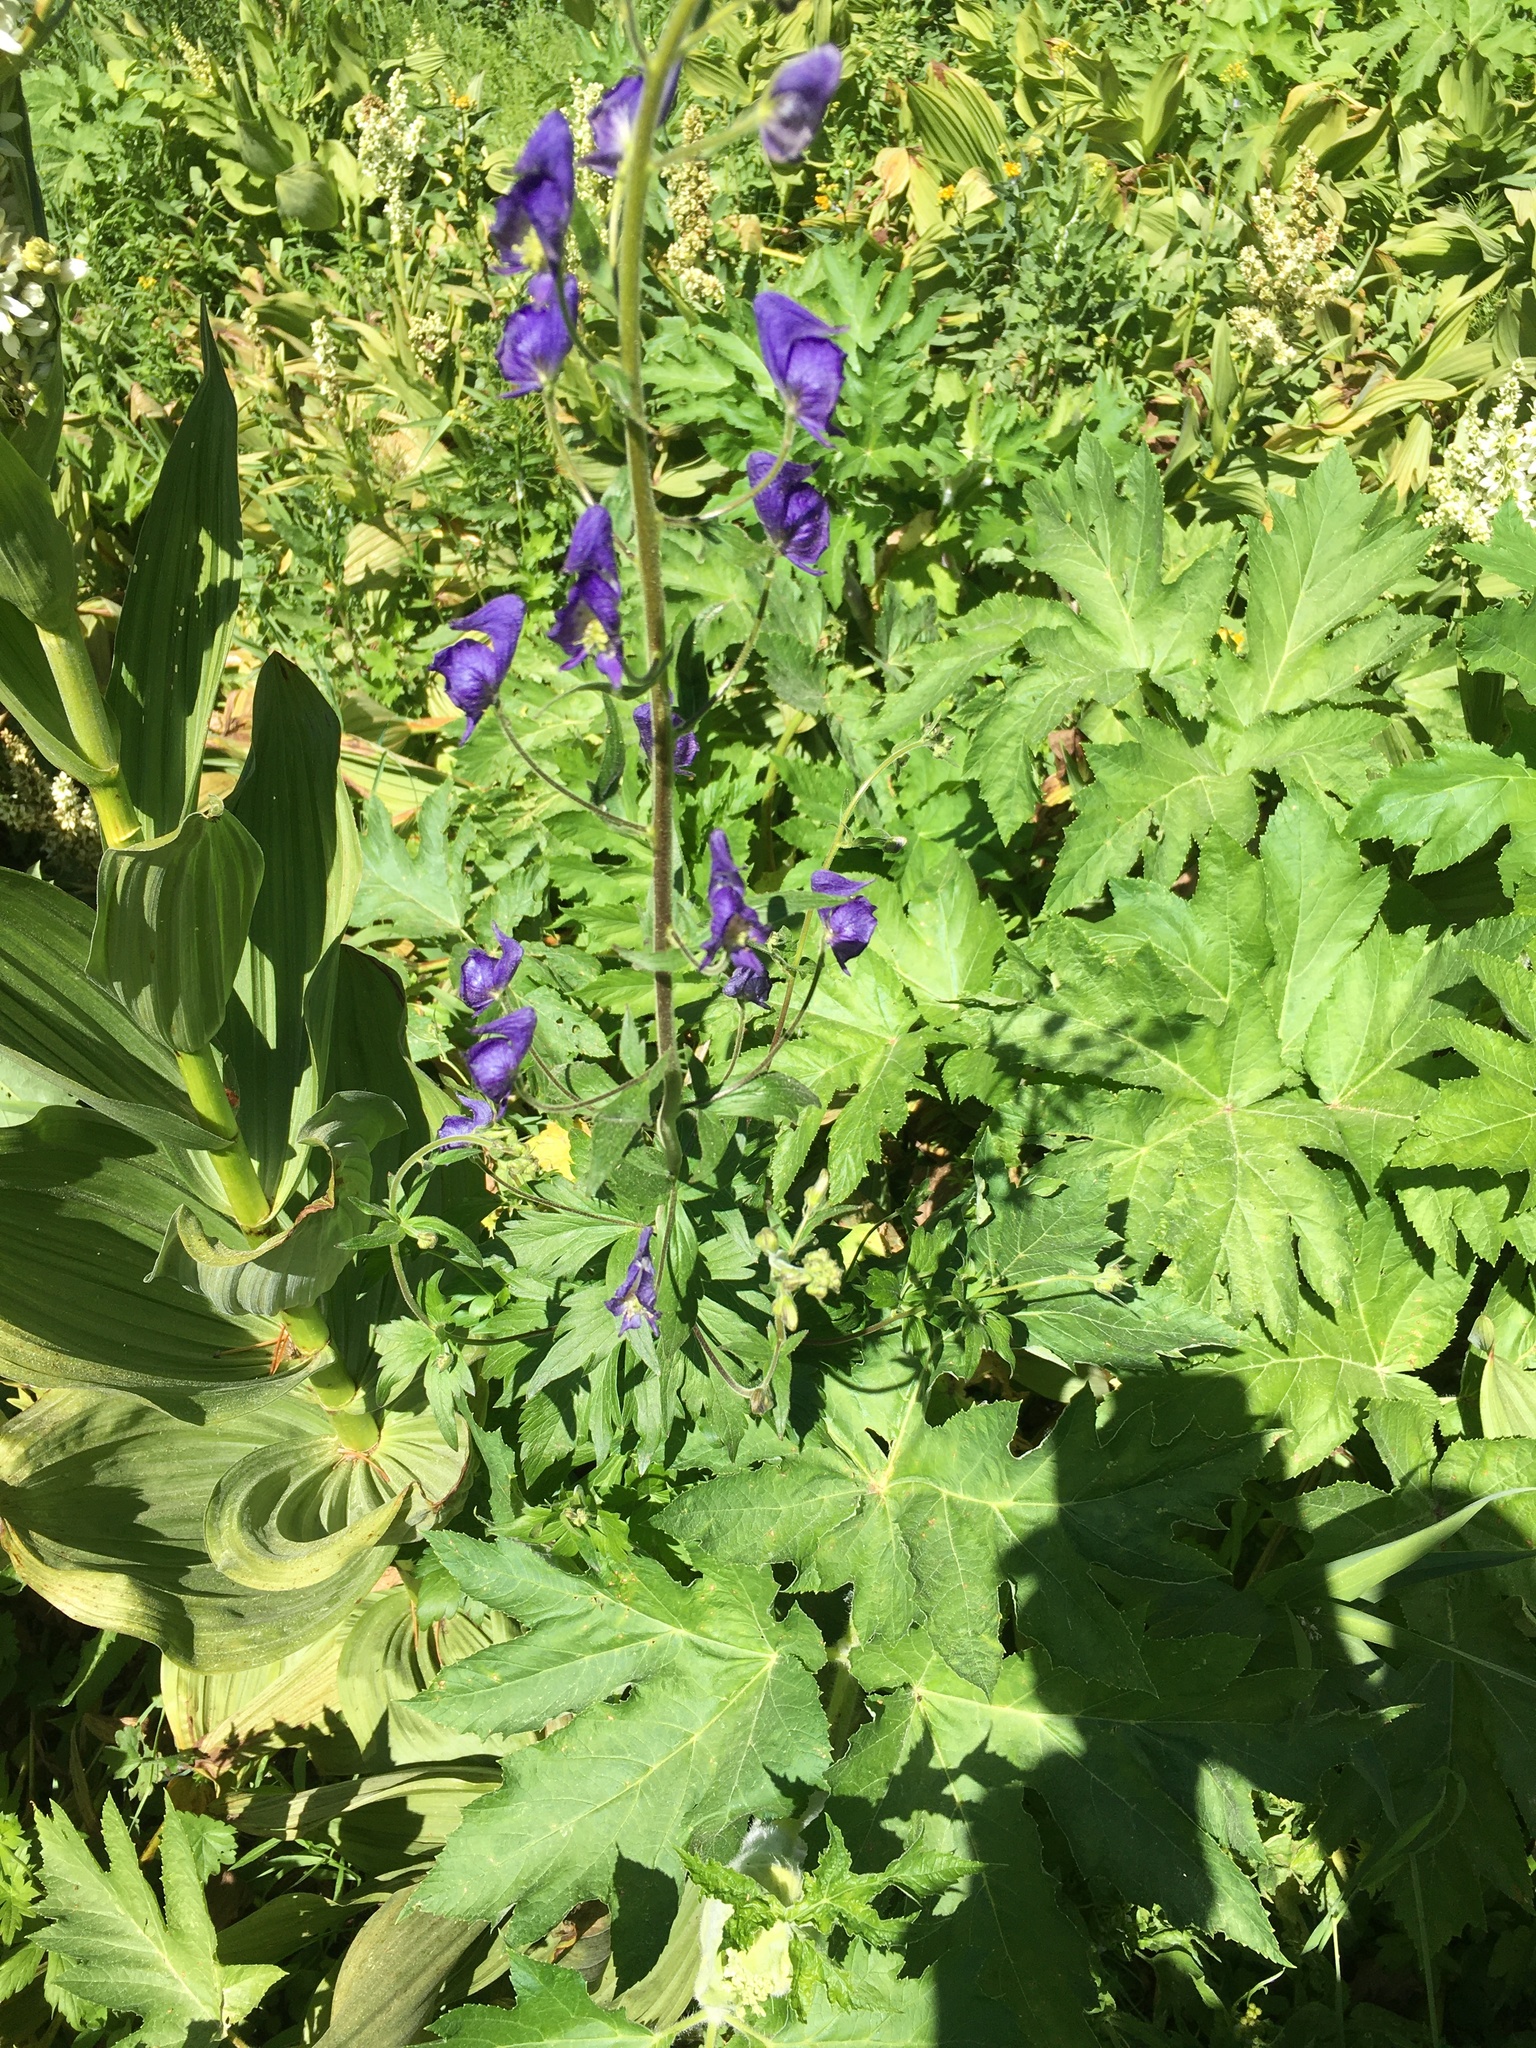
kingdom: Plantae
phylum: Tracheophyta
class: Magnoliopsida
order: Ranunculales
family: Ranunculaceae
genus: Aconitum
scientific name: Aconitum columbianum
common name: Columbia aconite
